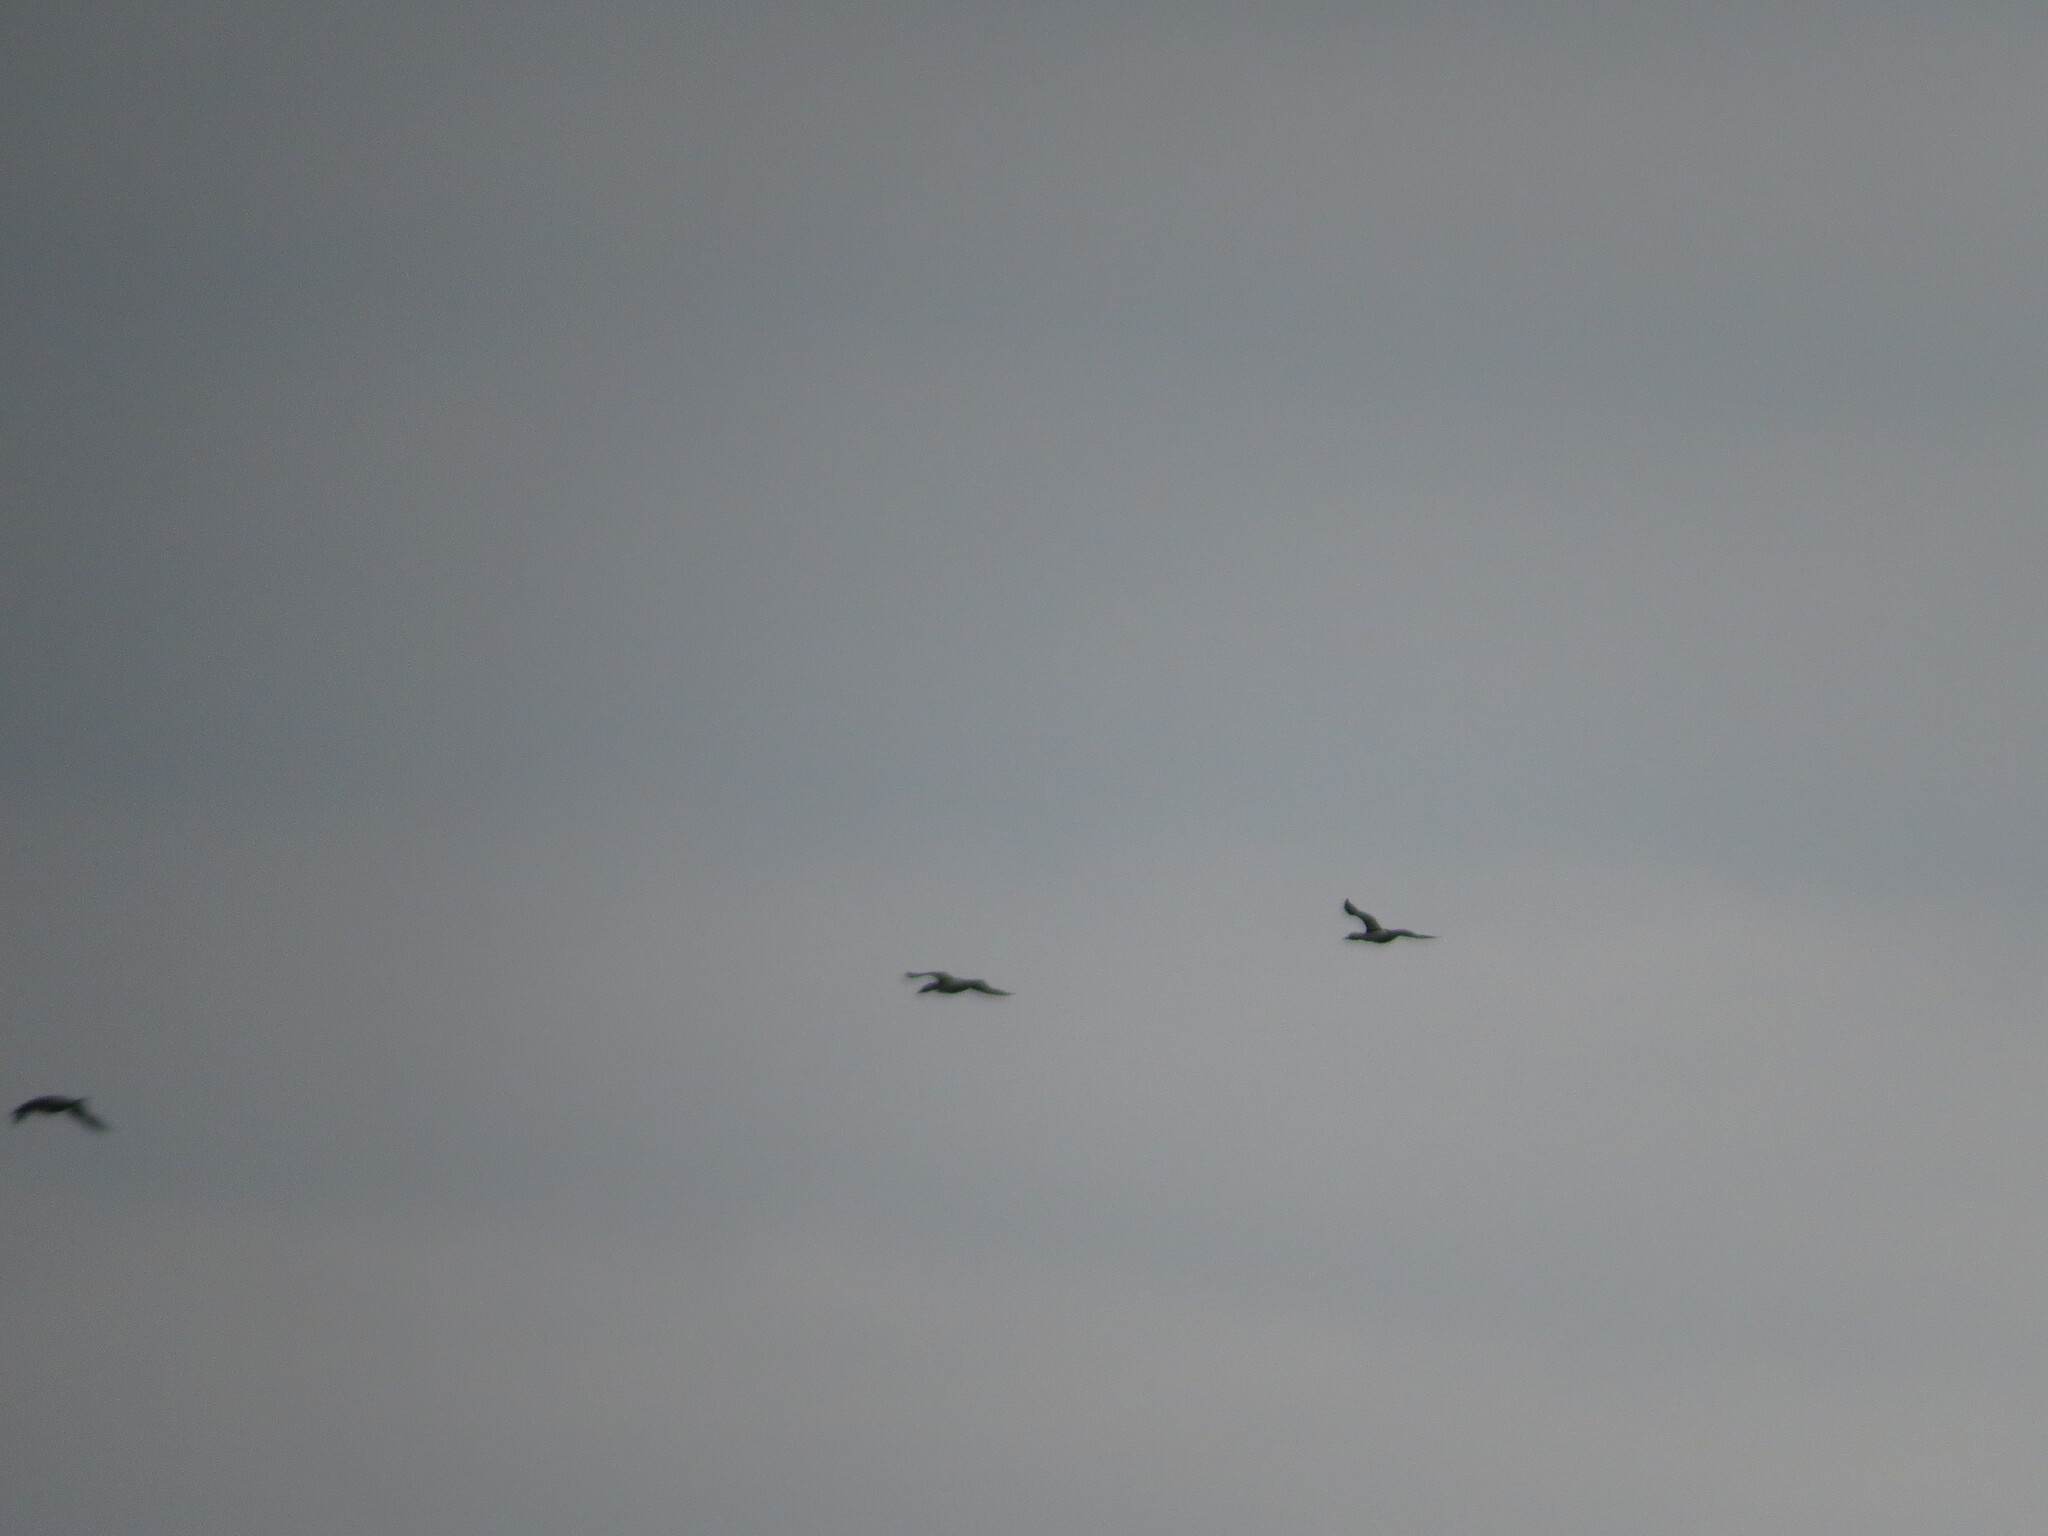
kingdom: Animalia
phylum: Chordata
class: Aves
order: Anseriformes
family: Anatidae
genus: Mergus
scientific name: Mergus merganser
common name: Common merganser
